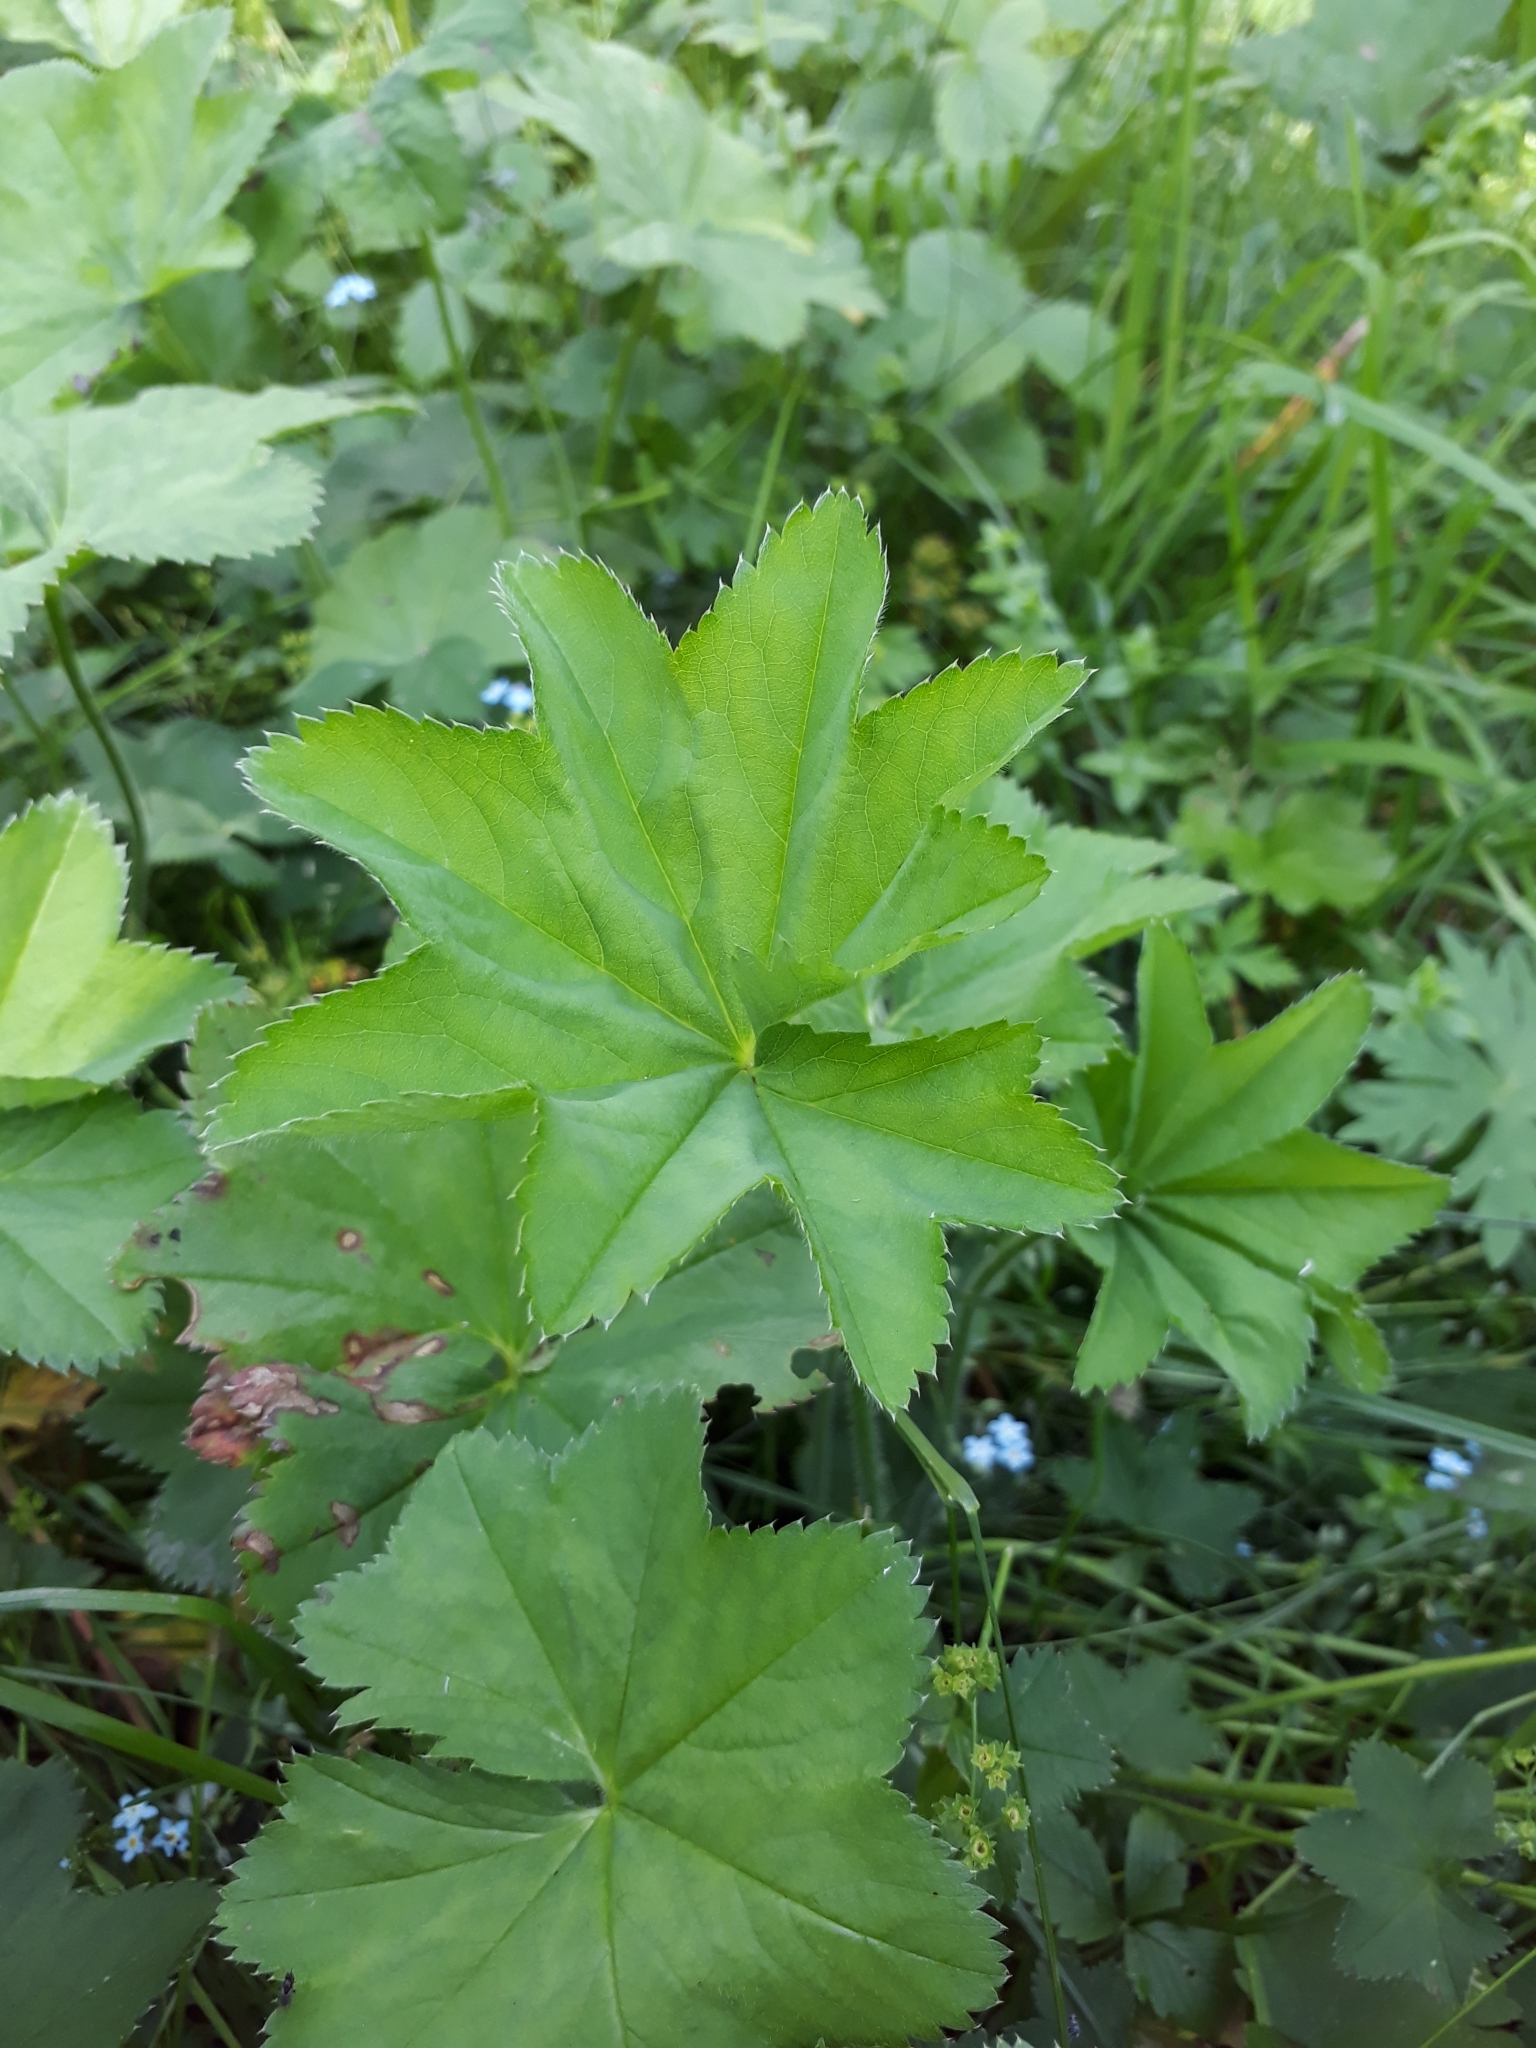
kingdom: Plantae
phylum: Tracheophyta
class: Magnoliopsida
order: Rosales
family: Rosaceae
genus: Alchemilla
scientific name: Alchemilla
